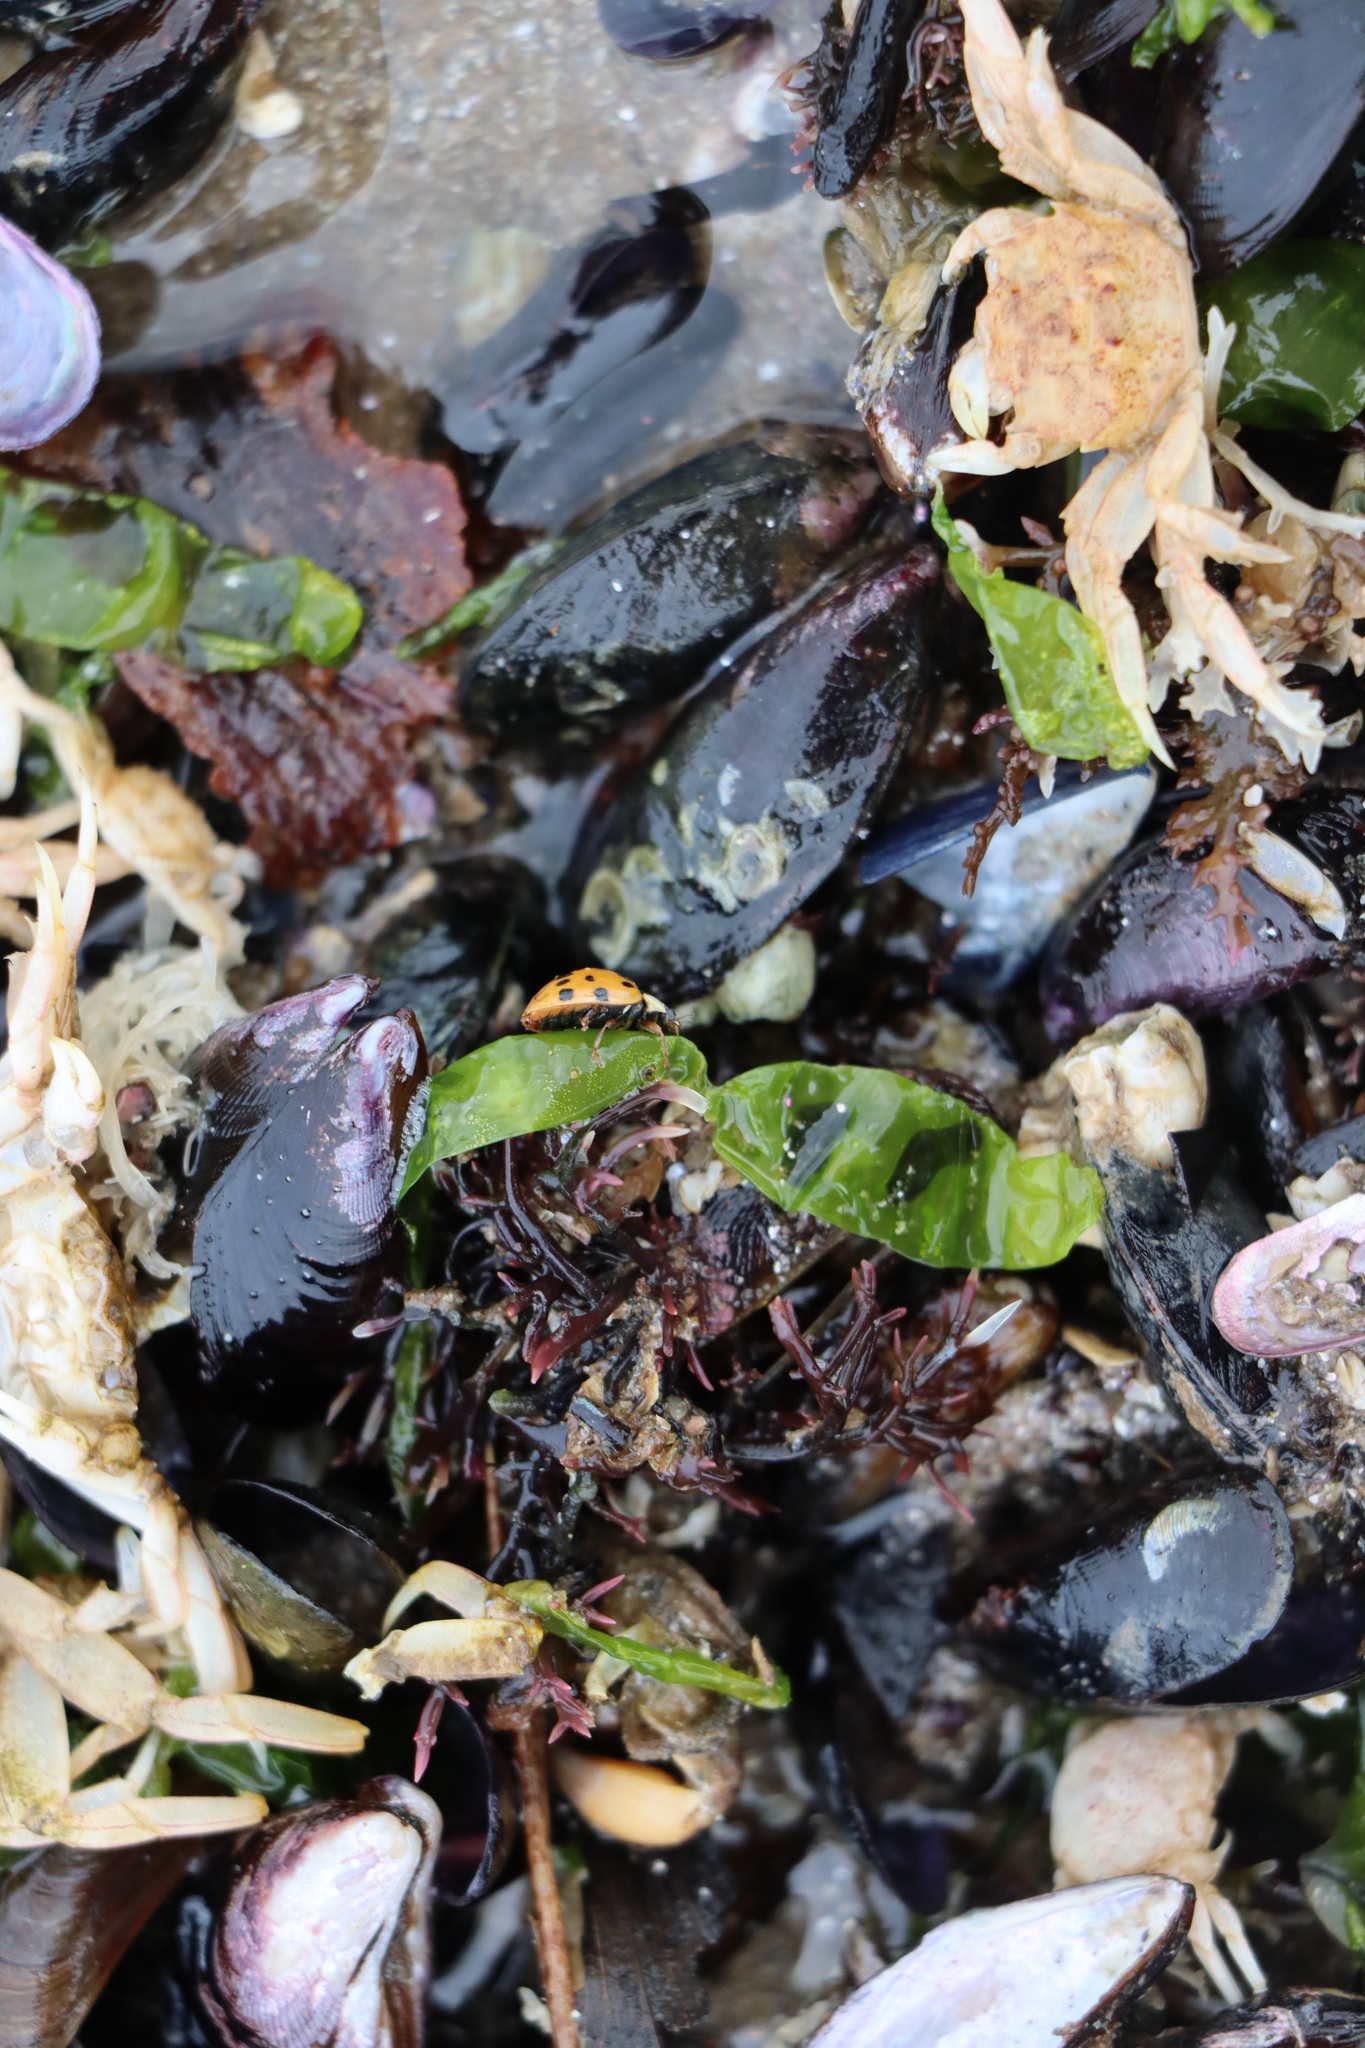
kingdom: Animalia
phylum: Arthropoda
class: Insecta
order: Coleoptera
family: Coccinellidae
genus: Harmonia
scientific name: Harmonia axyridis
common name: Harlequin ladybird
